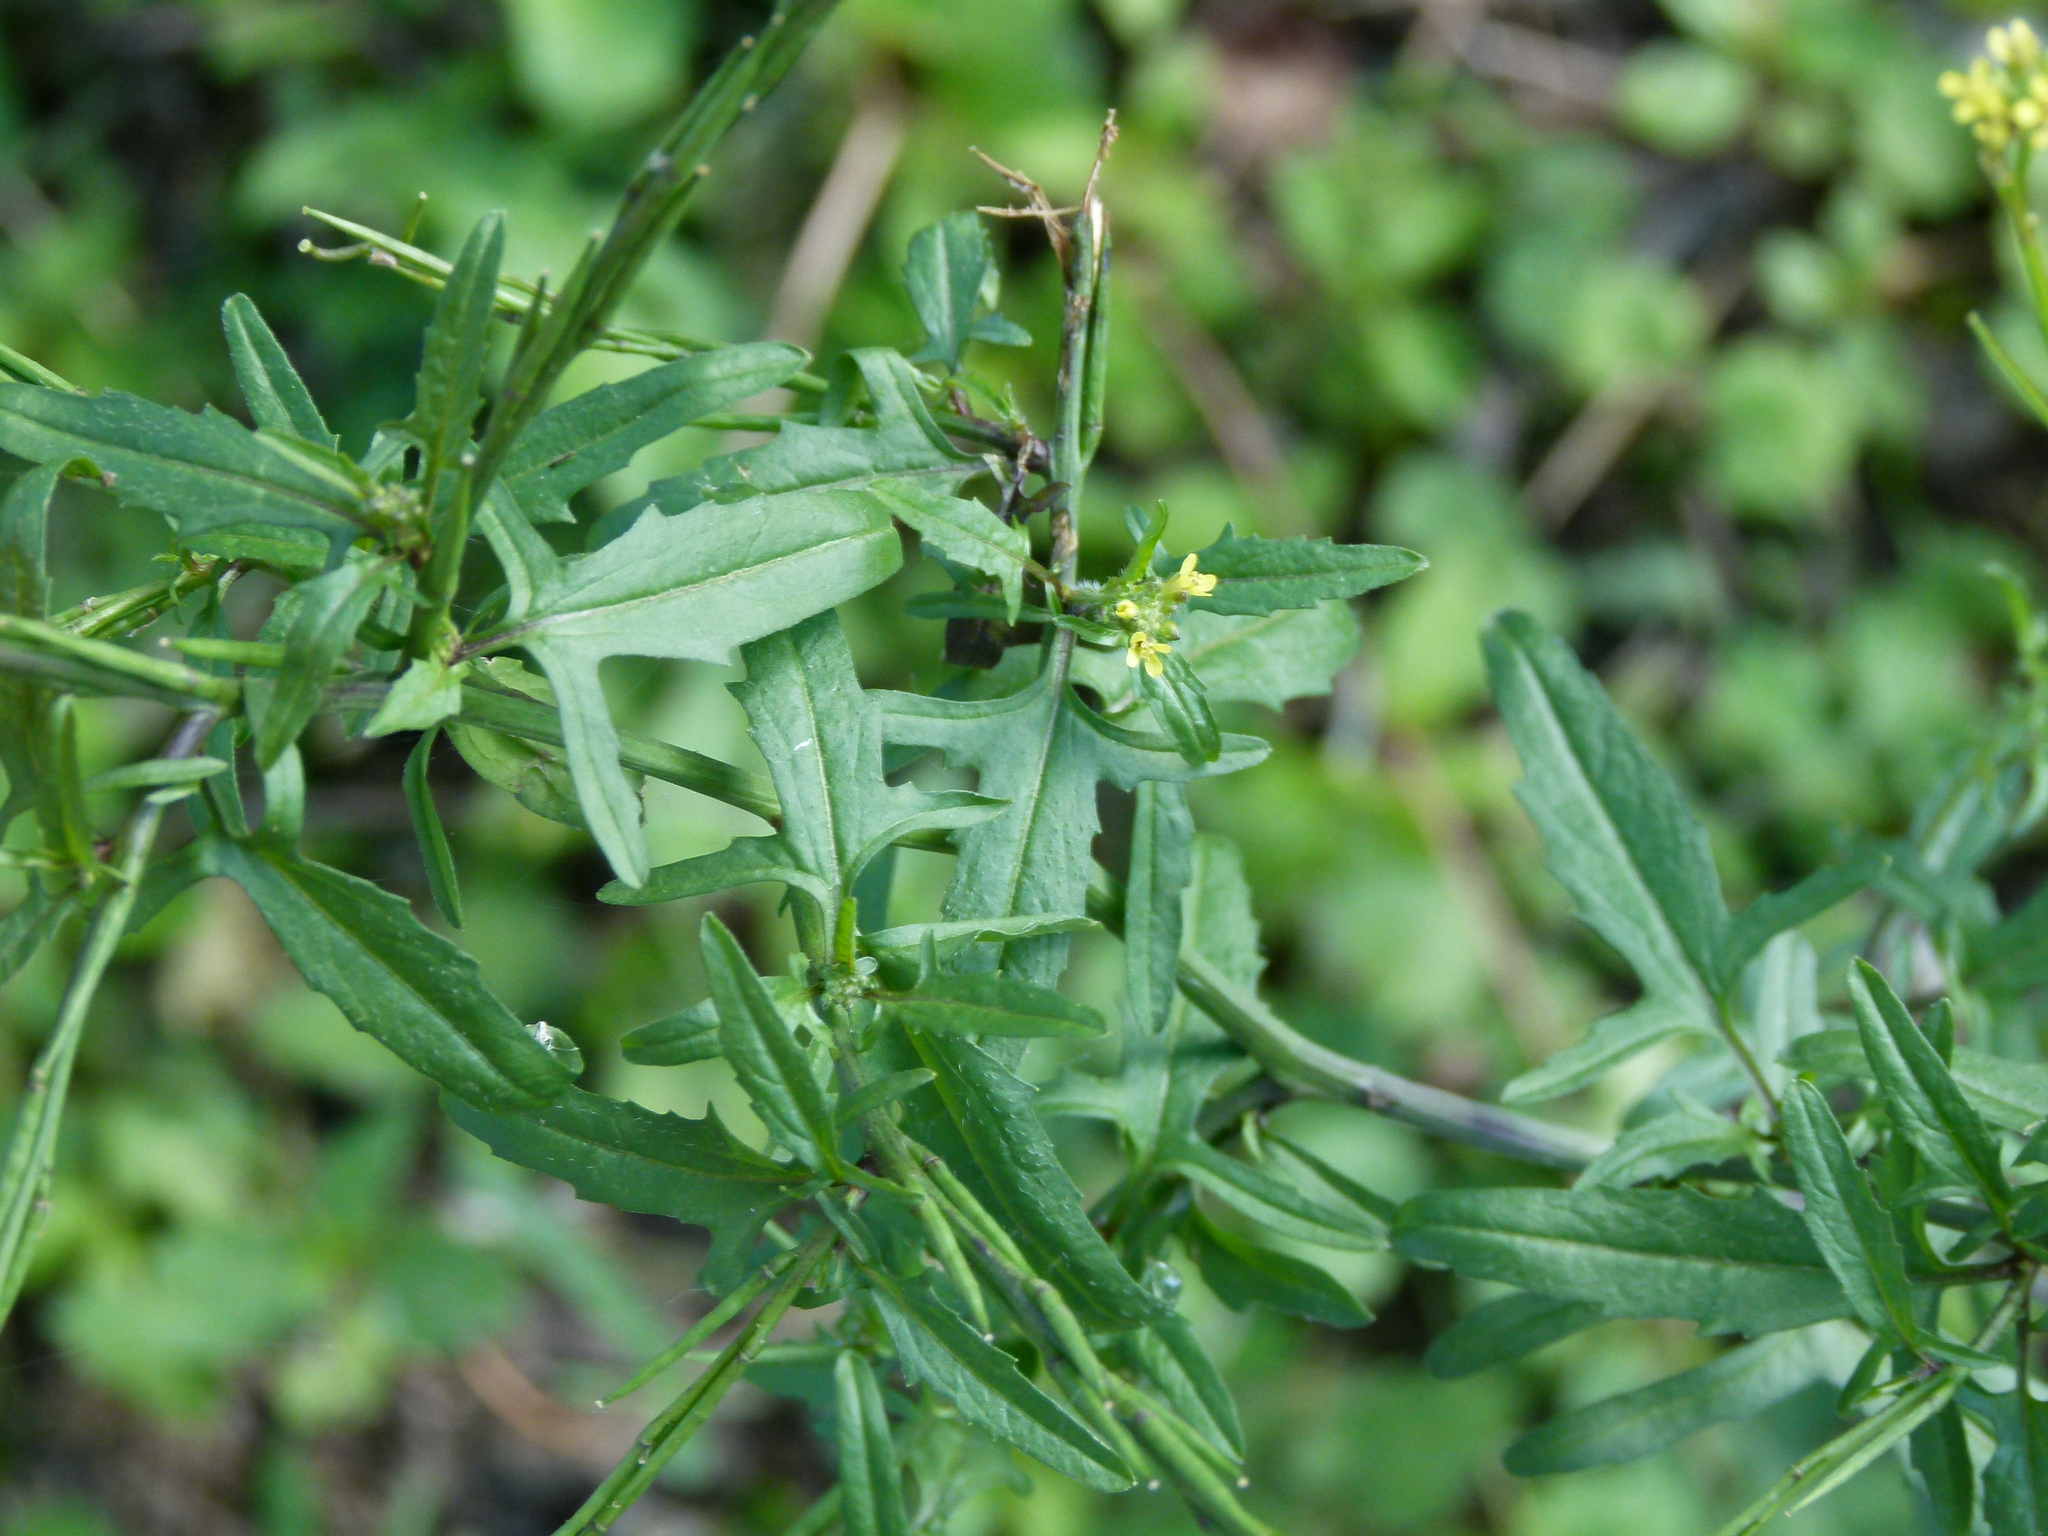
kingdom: Plantae
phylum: Tracheophyta
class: Magnoliopsida
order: Brassicales
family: Brassicaceae
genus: Sisymbrium
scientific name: Sisymbrium officinale
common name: Hedge mustard
